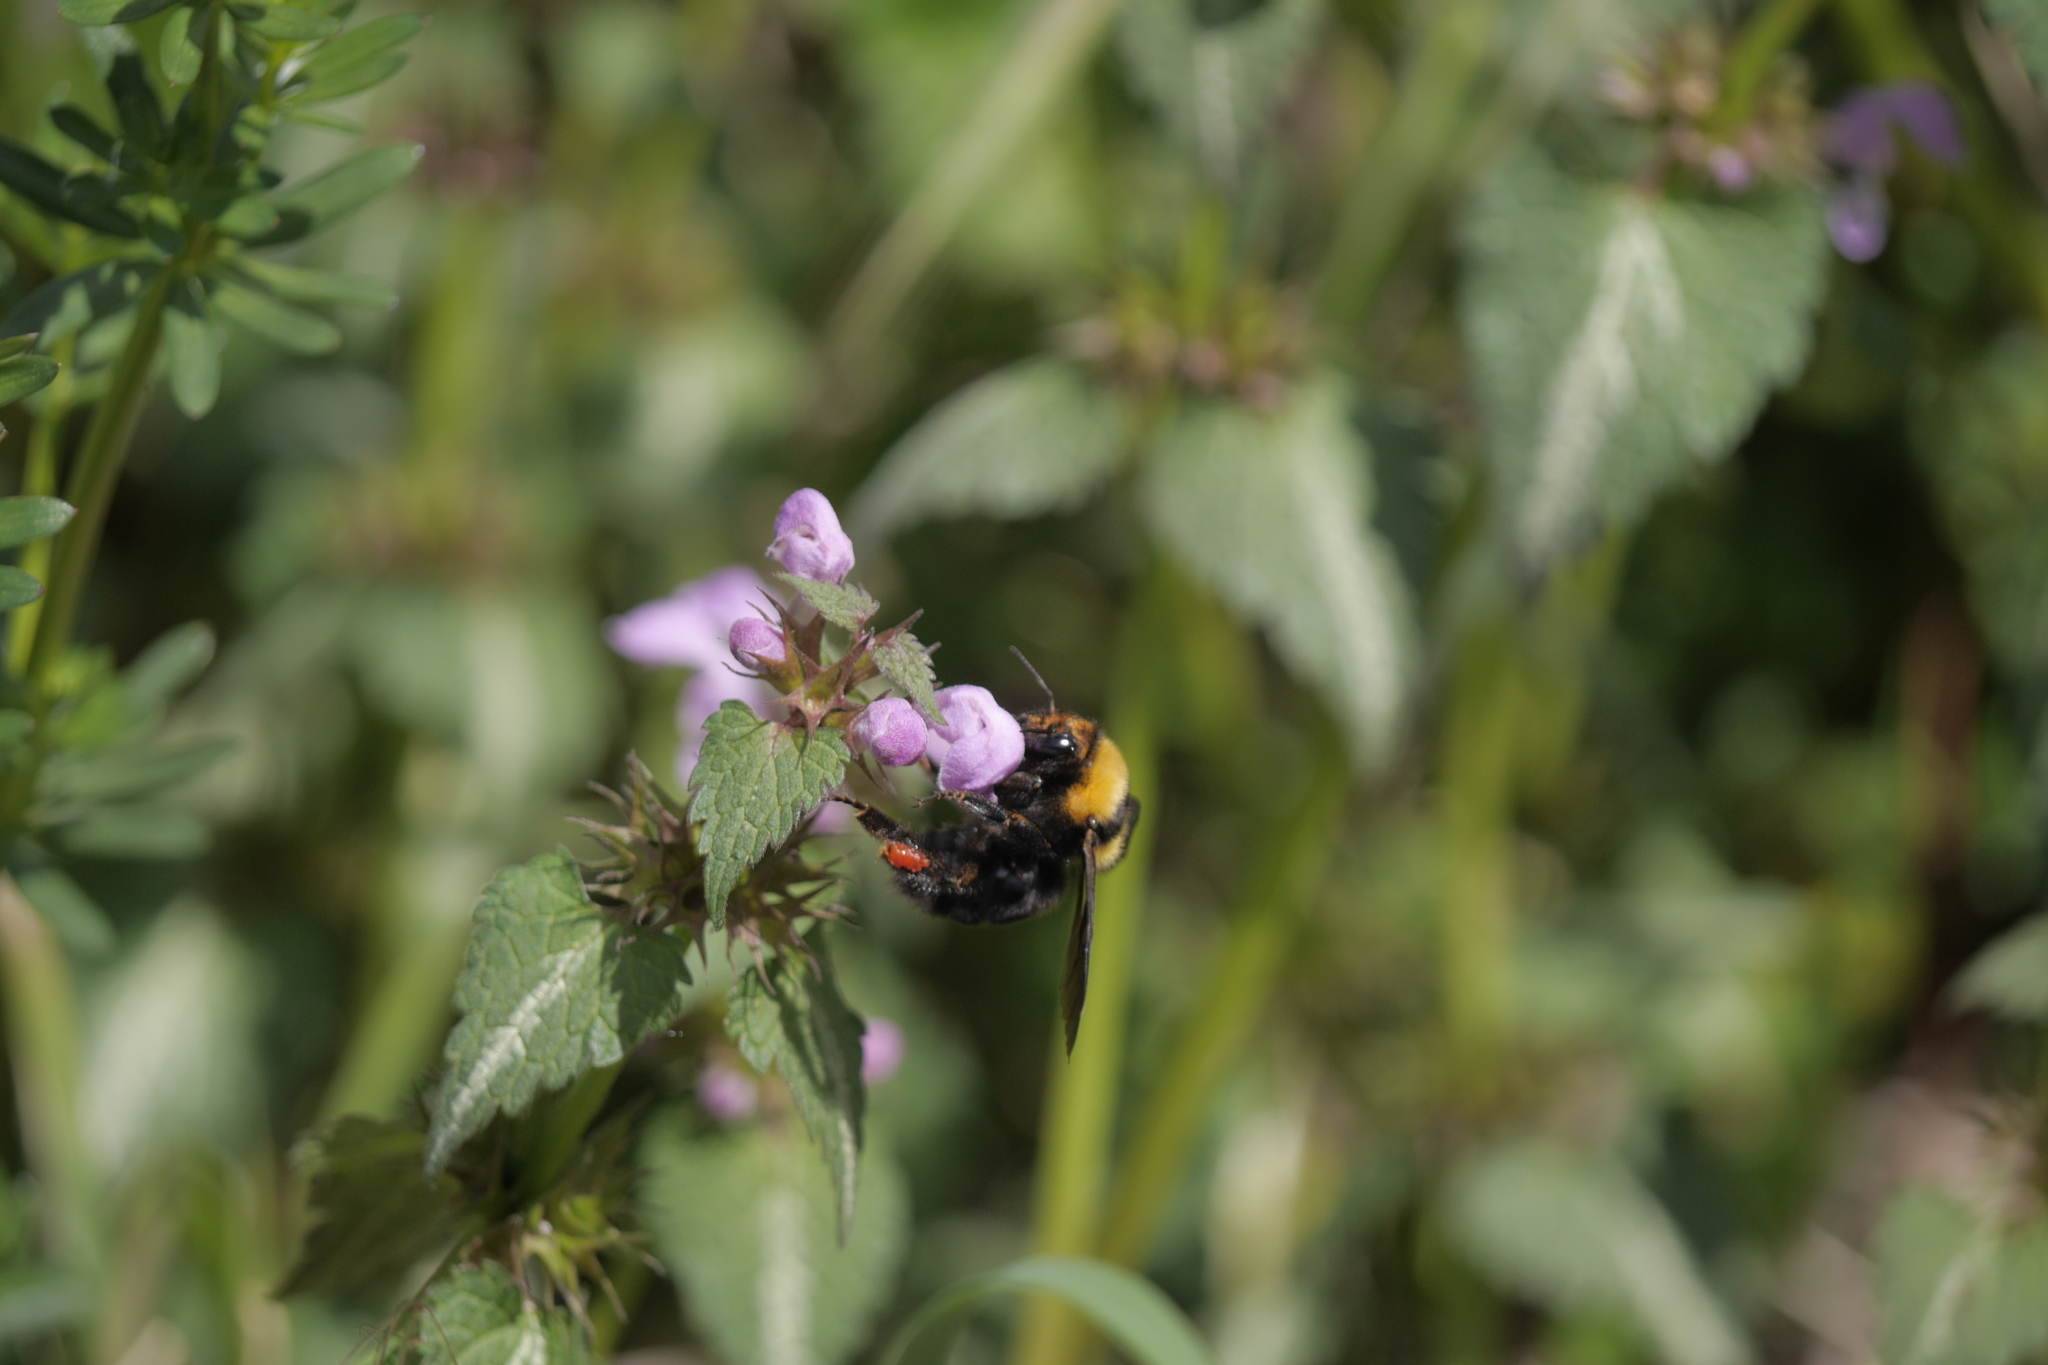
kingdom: Animalia
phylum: Arthropoda
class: Insecta
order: Hymenoptera
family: Apidae
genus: Bombus
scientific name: Bombus argillaceus
